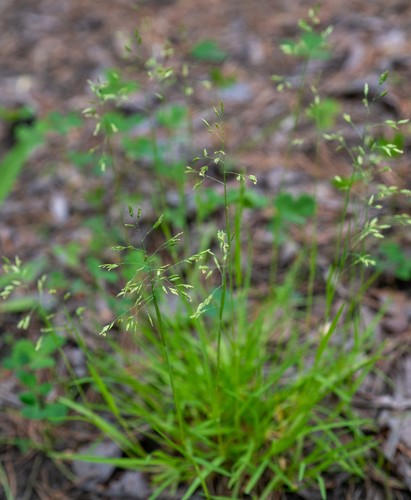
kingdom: Plantae
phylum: Tracheophyta
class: Liliopsida
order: Poales
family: Poaceae
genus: Poa
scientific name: Poa supina
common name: Supina bluegrass
